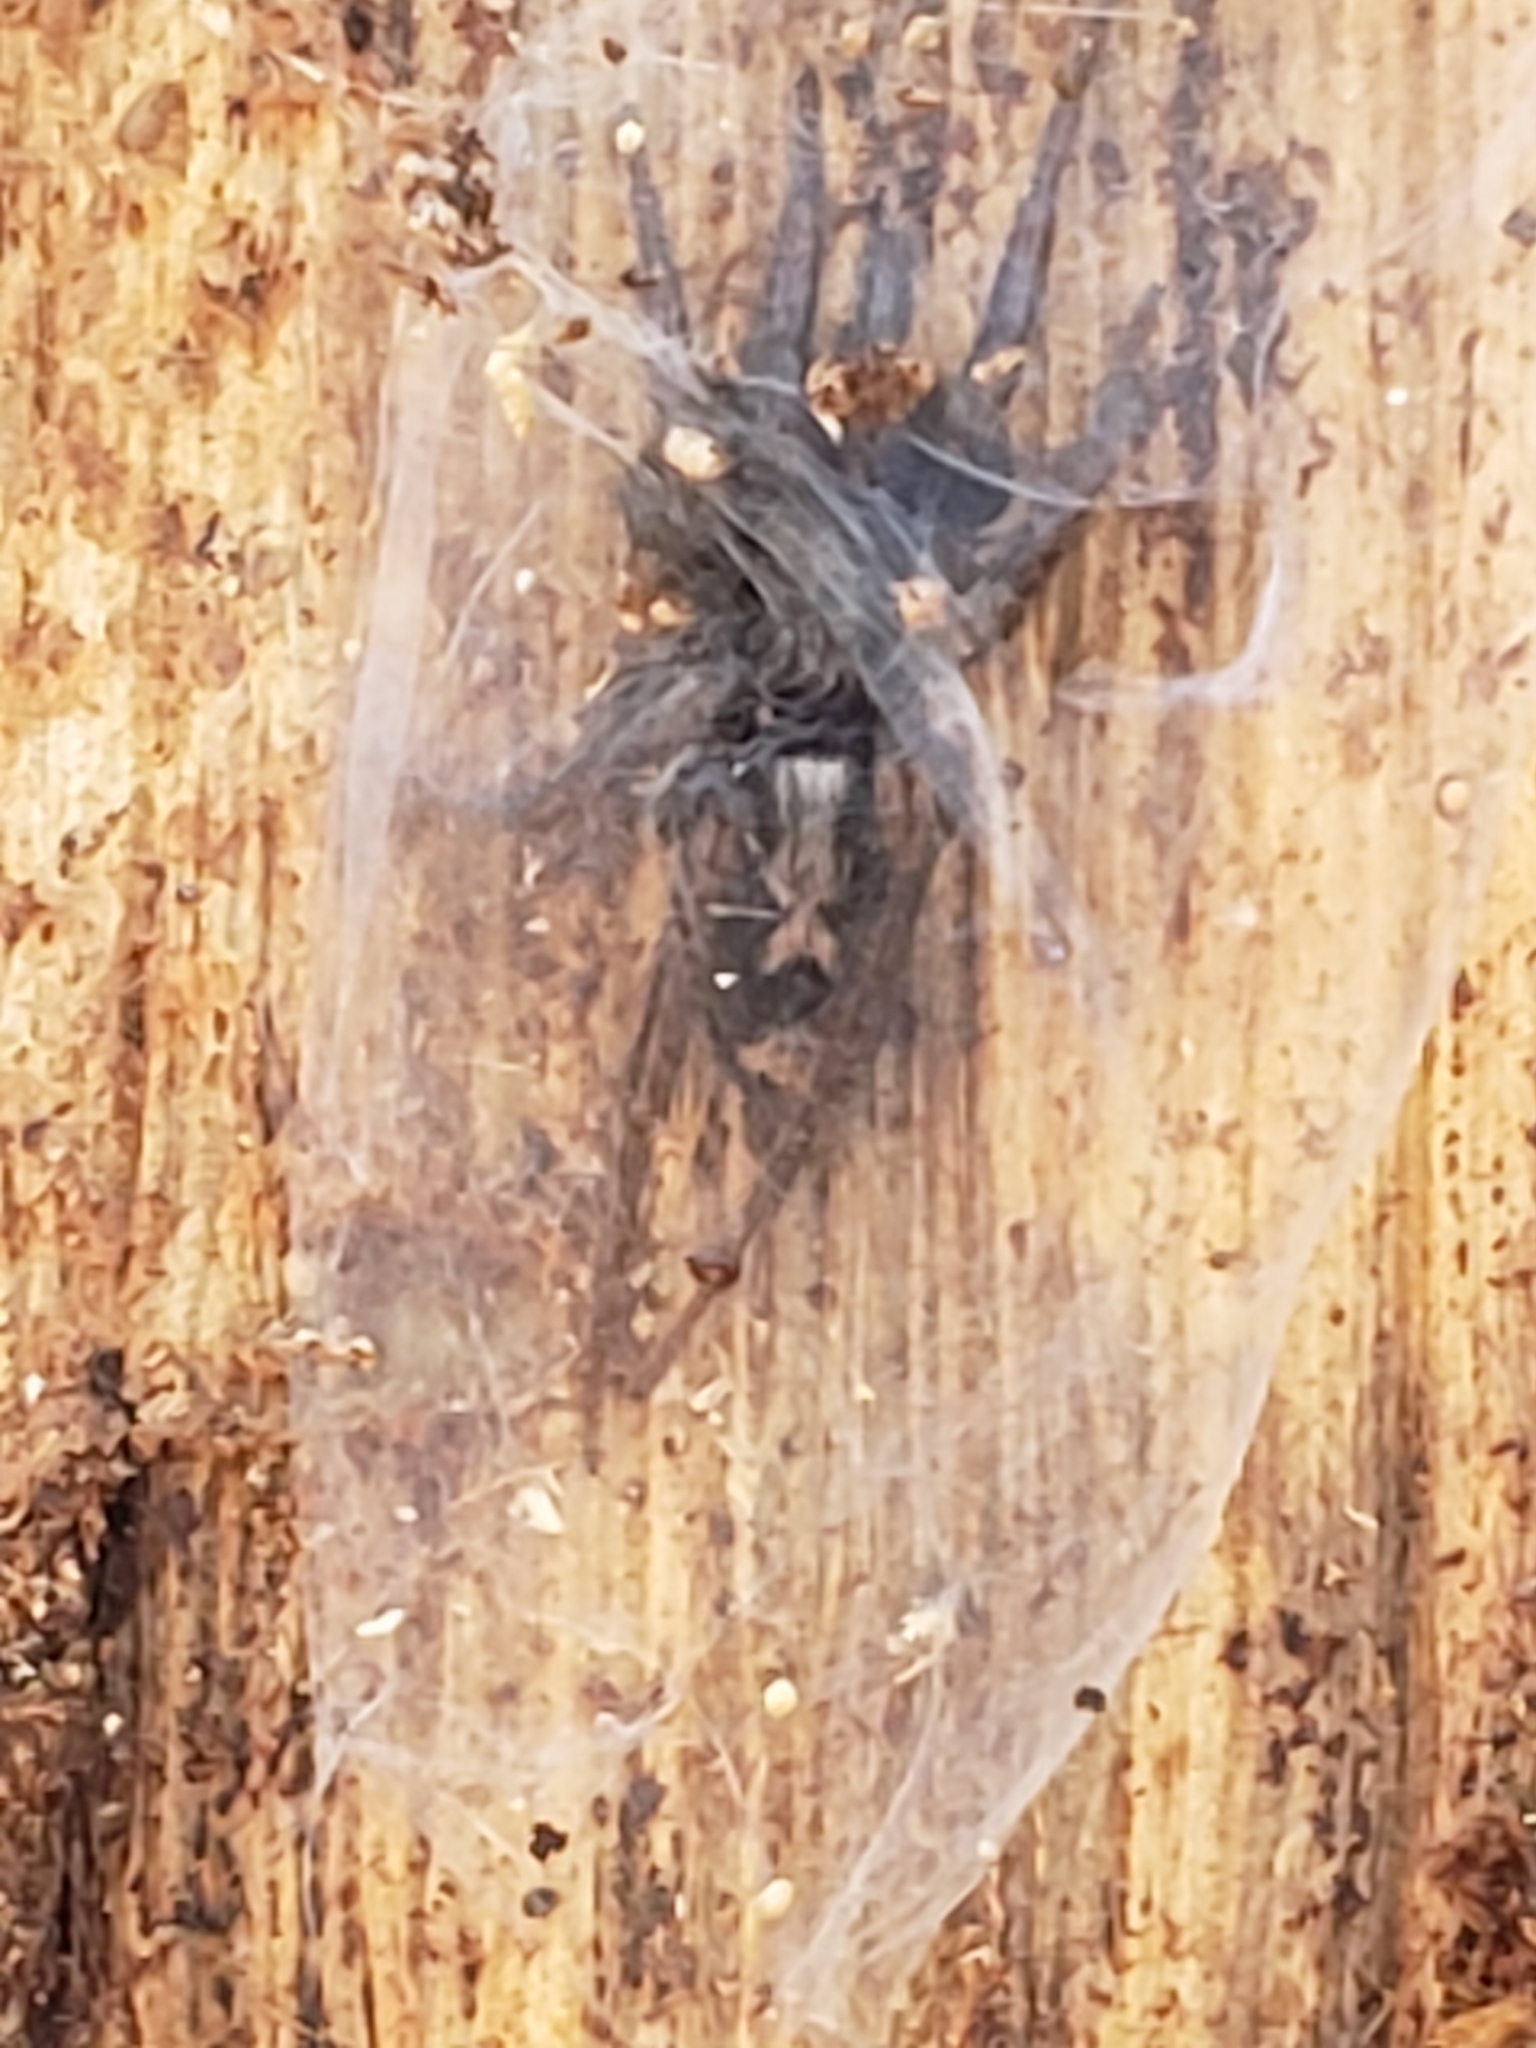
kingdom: Animalia
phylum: Arthropoda
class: Arachnida
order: Araneae
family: Gnaphosidae
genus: Herpyllus
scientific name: Herpyllus ecclesiasticus
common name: Eastern parson spider
